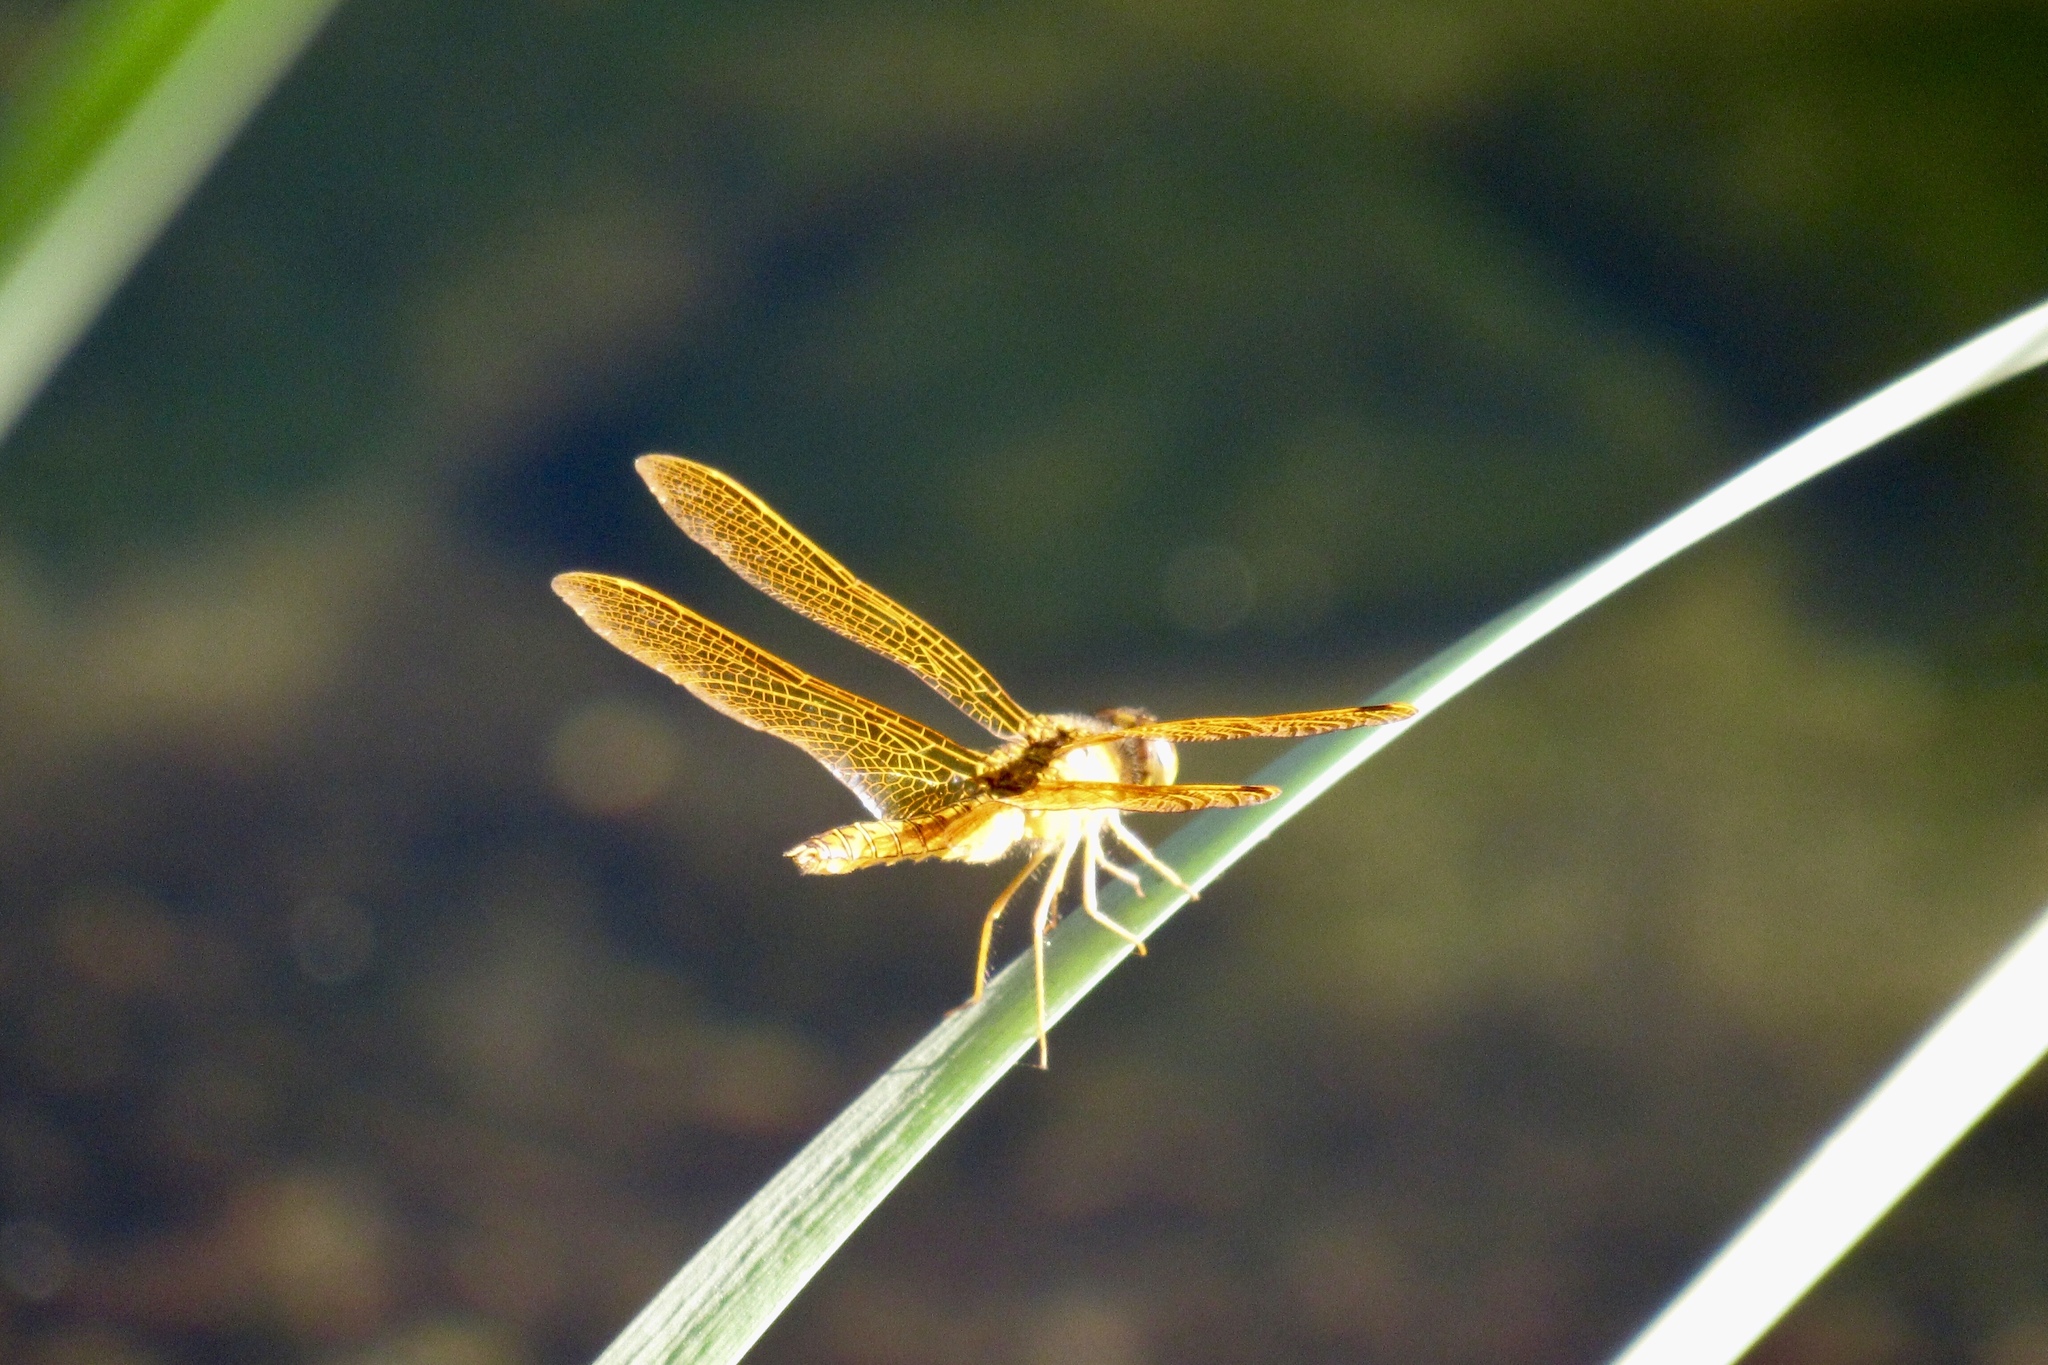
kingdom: Animalia
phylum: Arthropoda
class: Insecta
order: Odonata
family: Libellulidae
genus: Perithemis
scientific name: Perithemis intensa
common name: Mexican amberwing
